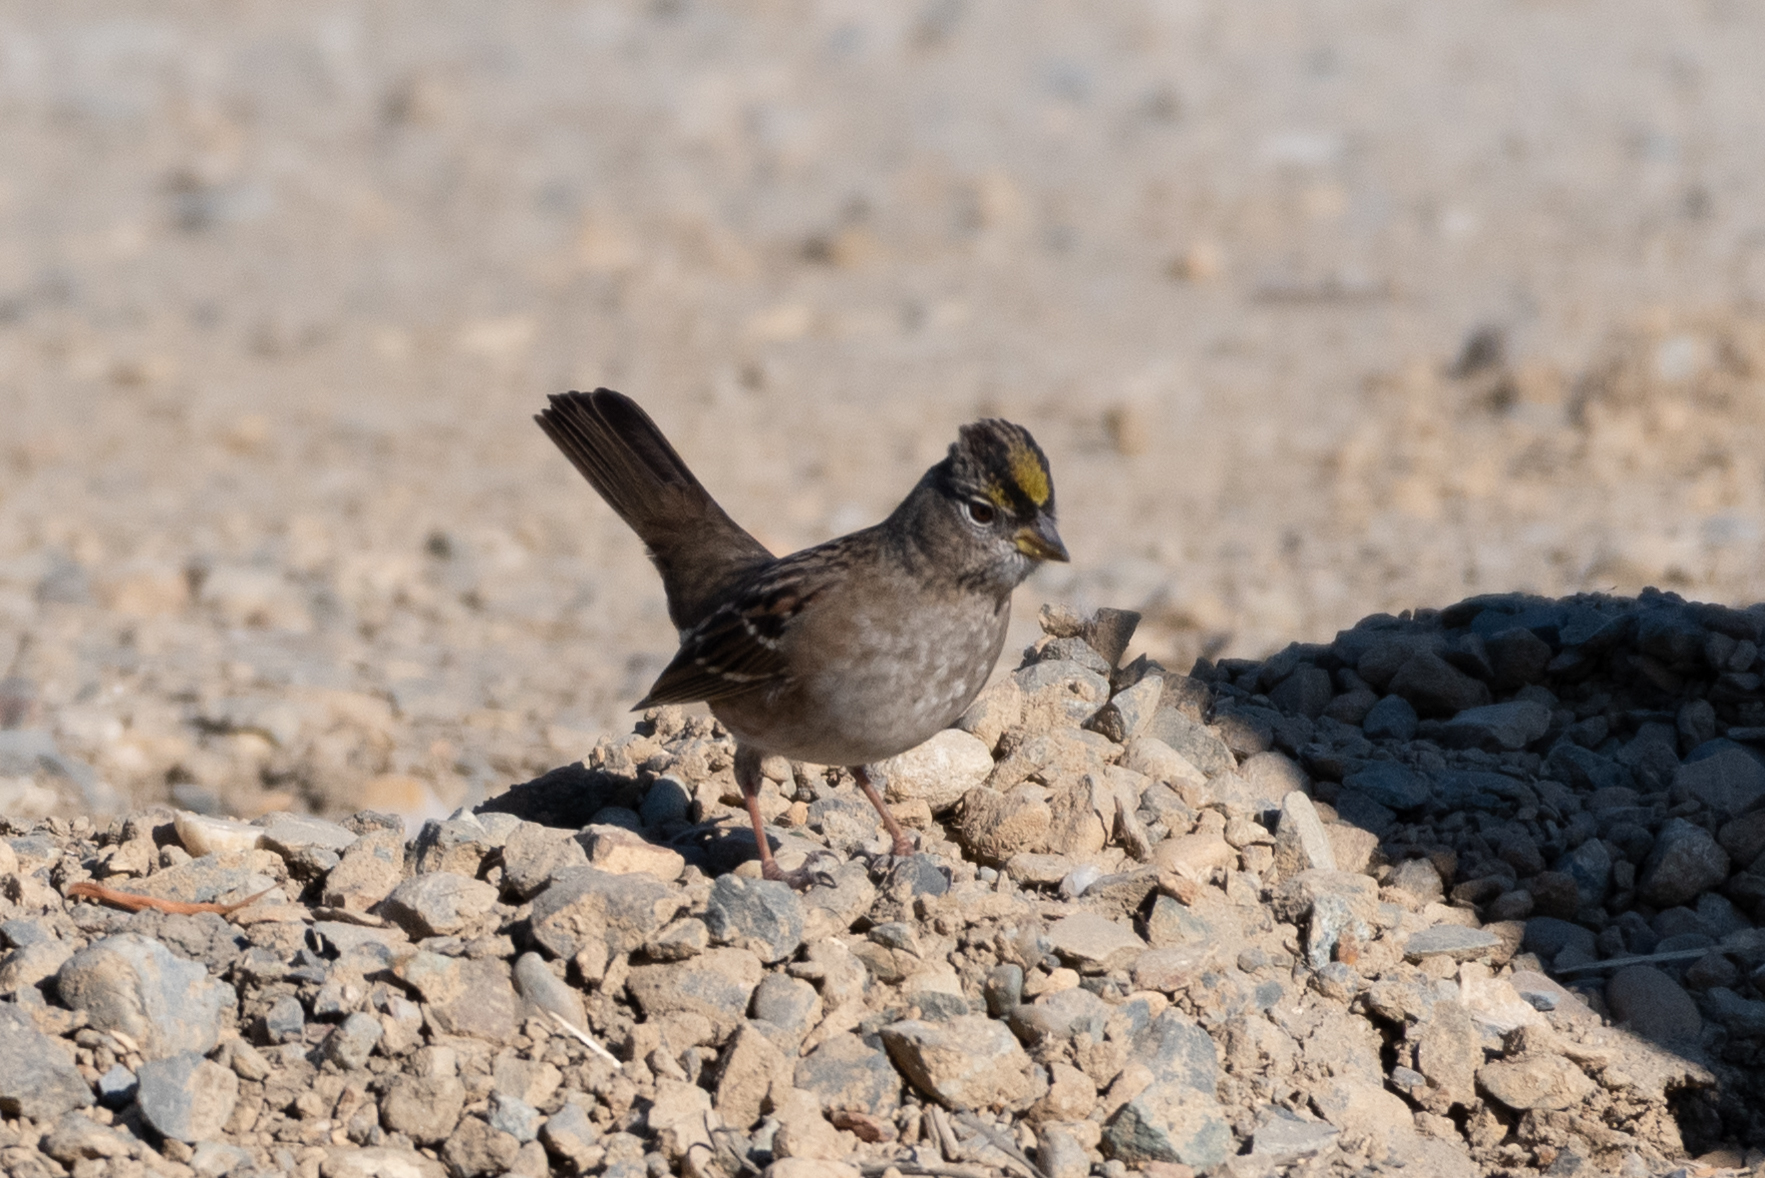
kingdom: Animalia
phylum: Chordata
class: Aves
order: Passeriformes
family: Passerellidae
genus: Zonotrichia
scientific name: Zonotrichia atricapilla
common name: Golden-crowned sparrow
